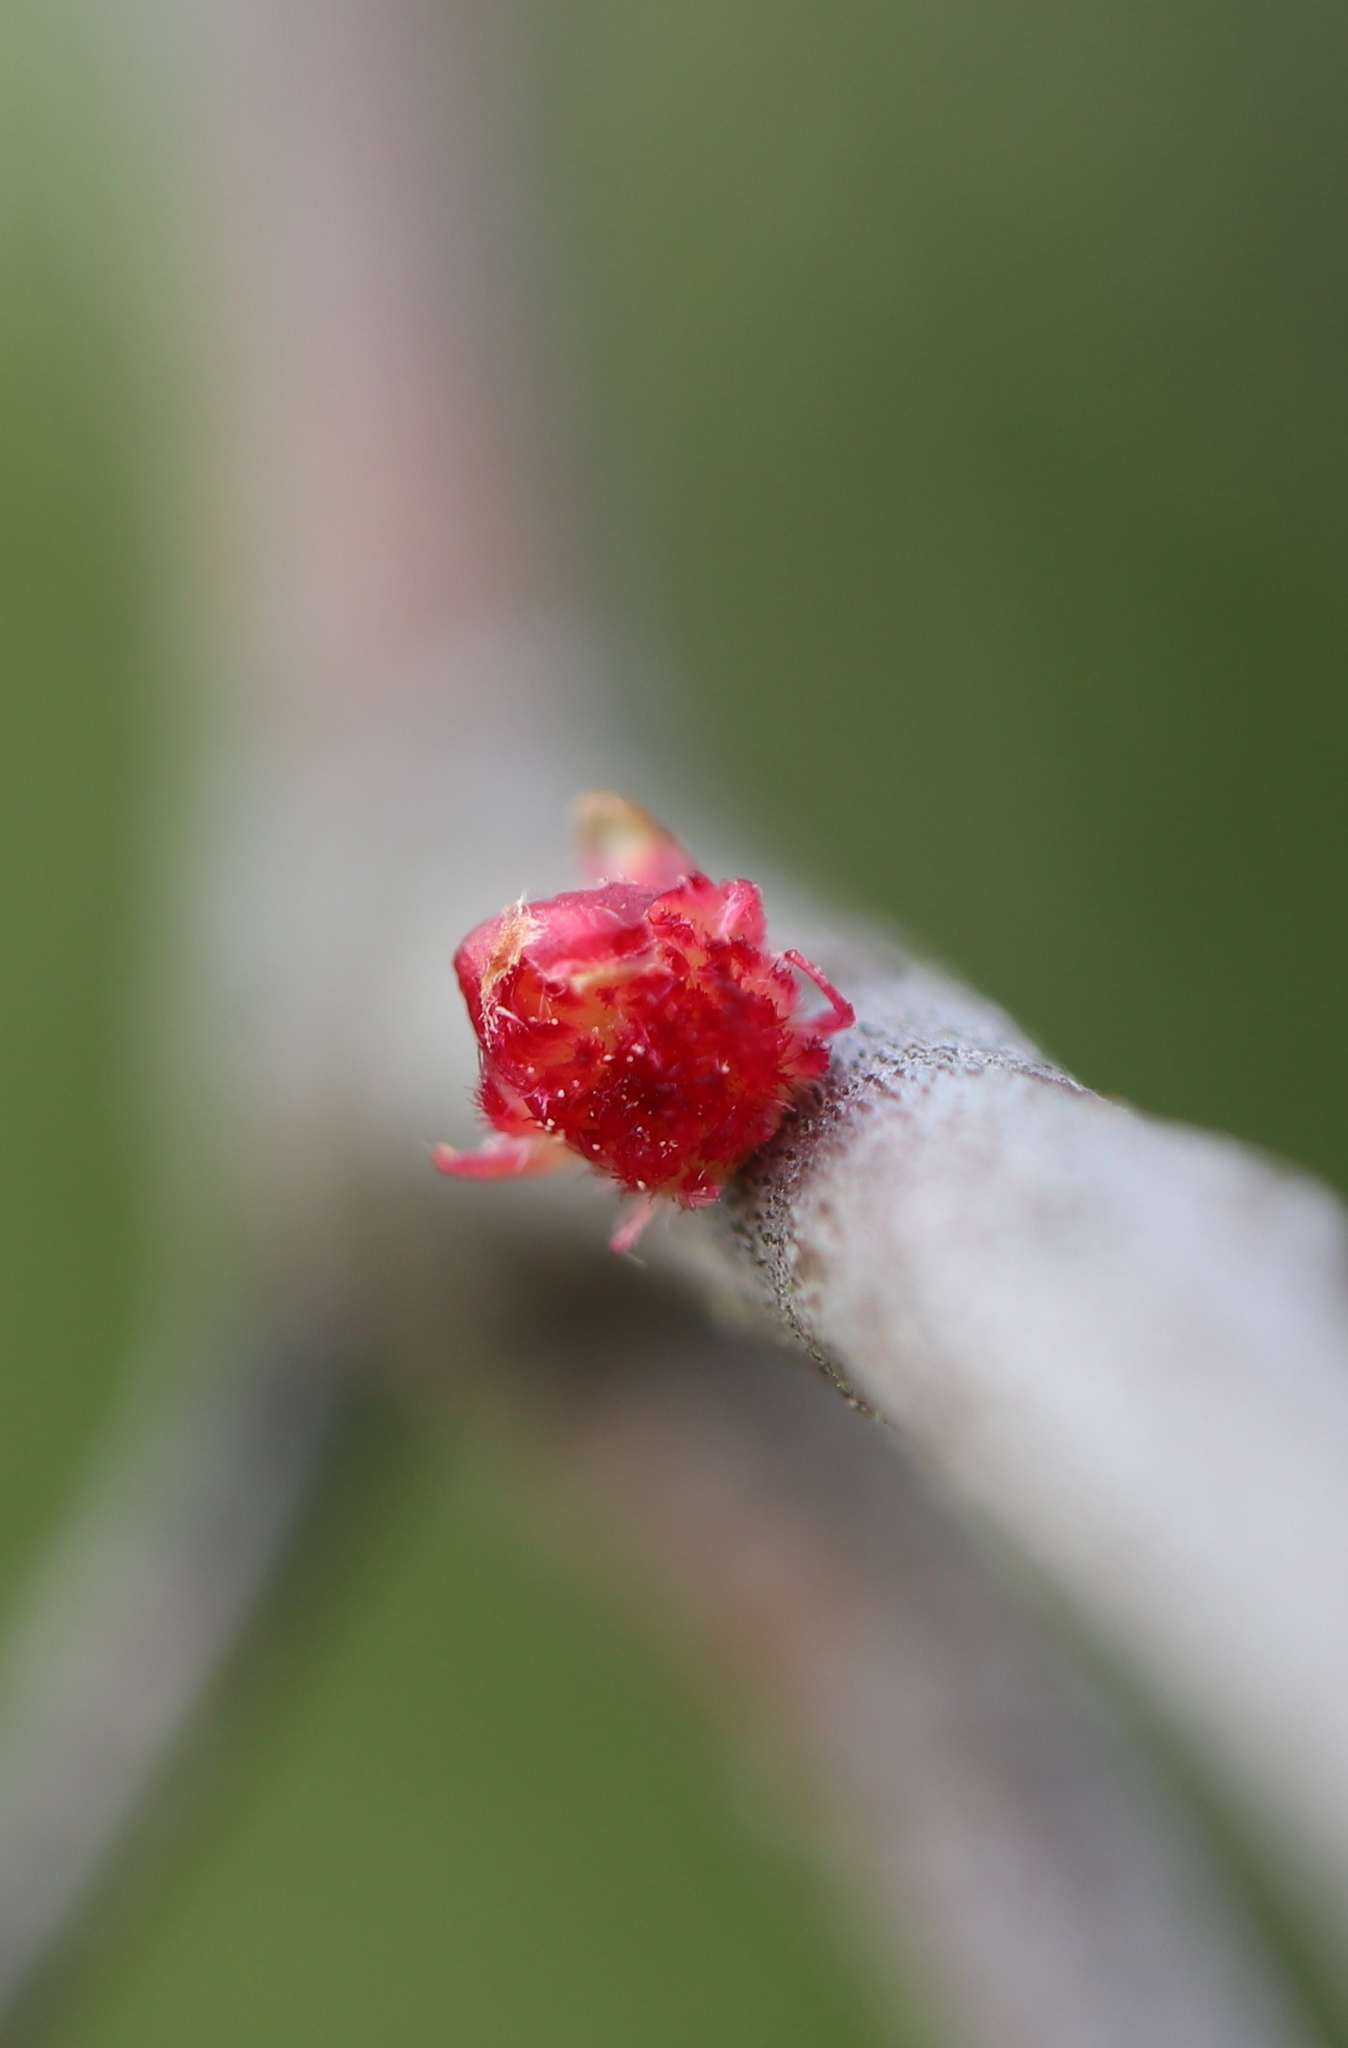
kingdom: Animalia
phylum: Arthropoda
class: Insecta
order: Hymenoptera
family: Cynipidae
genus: Dryocosmus
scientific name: Dryocosmus
